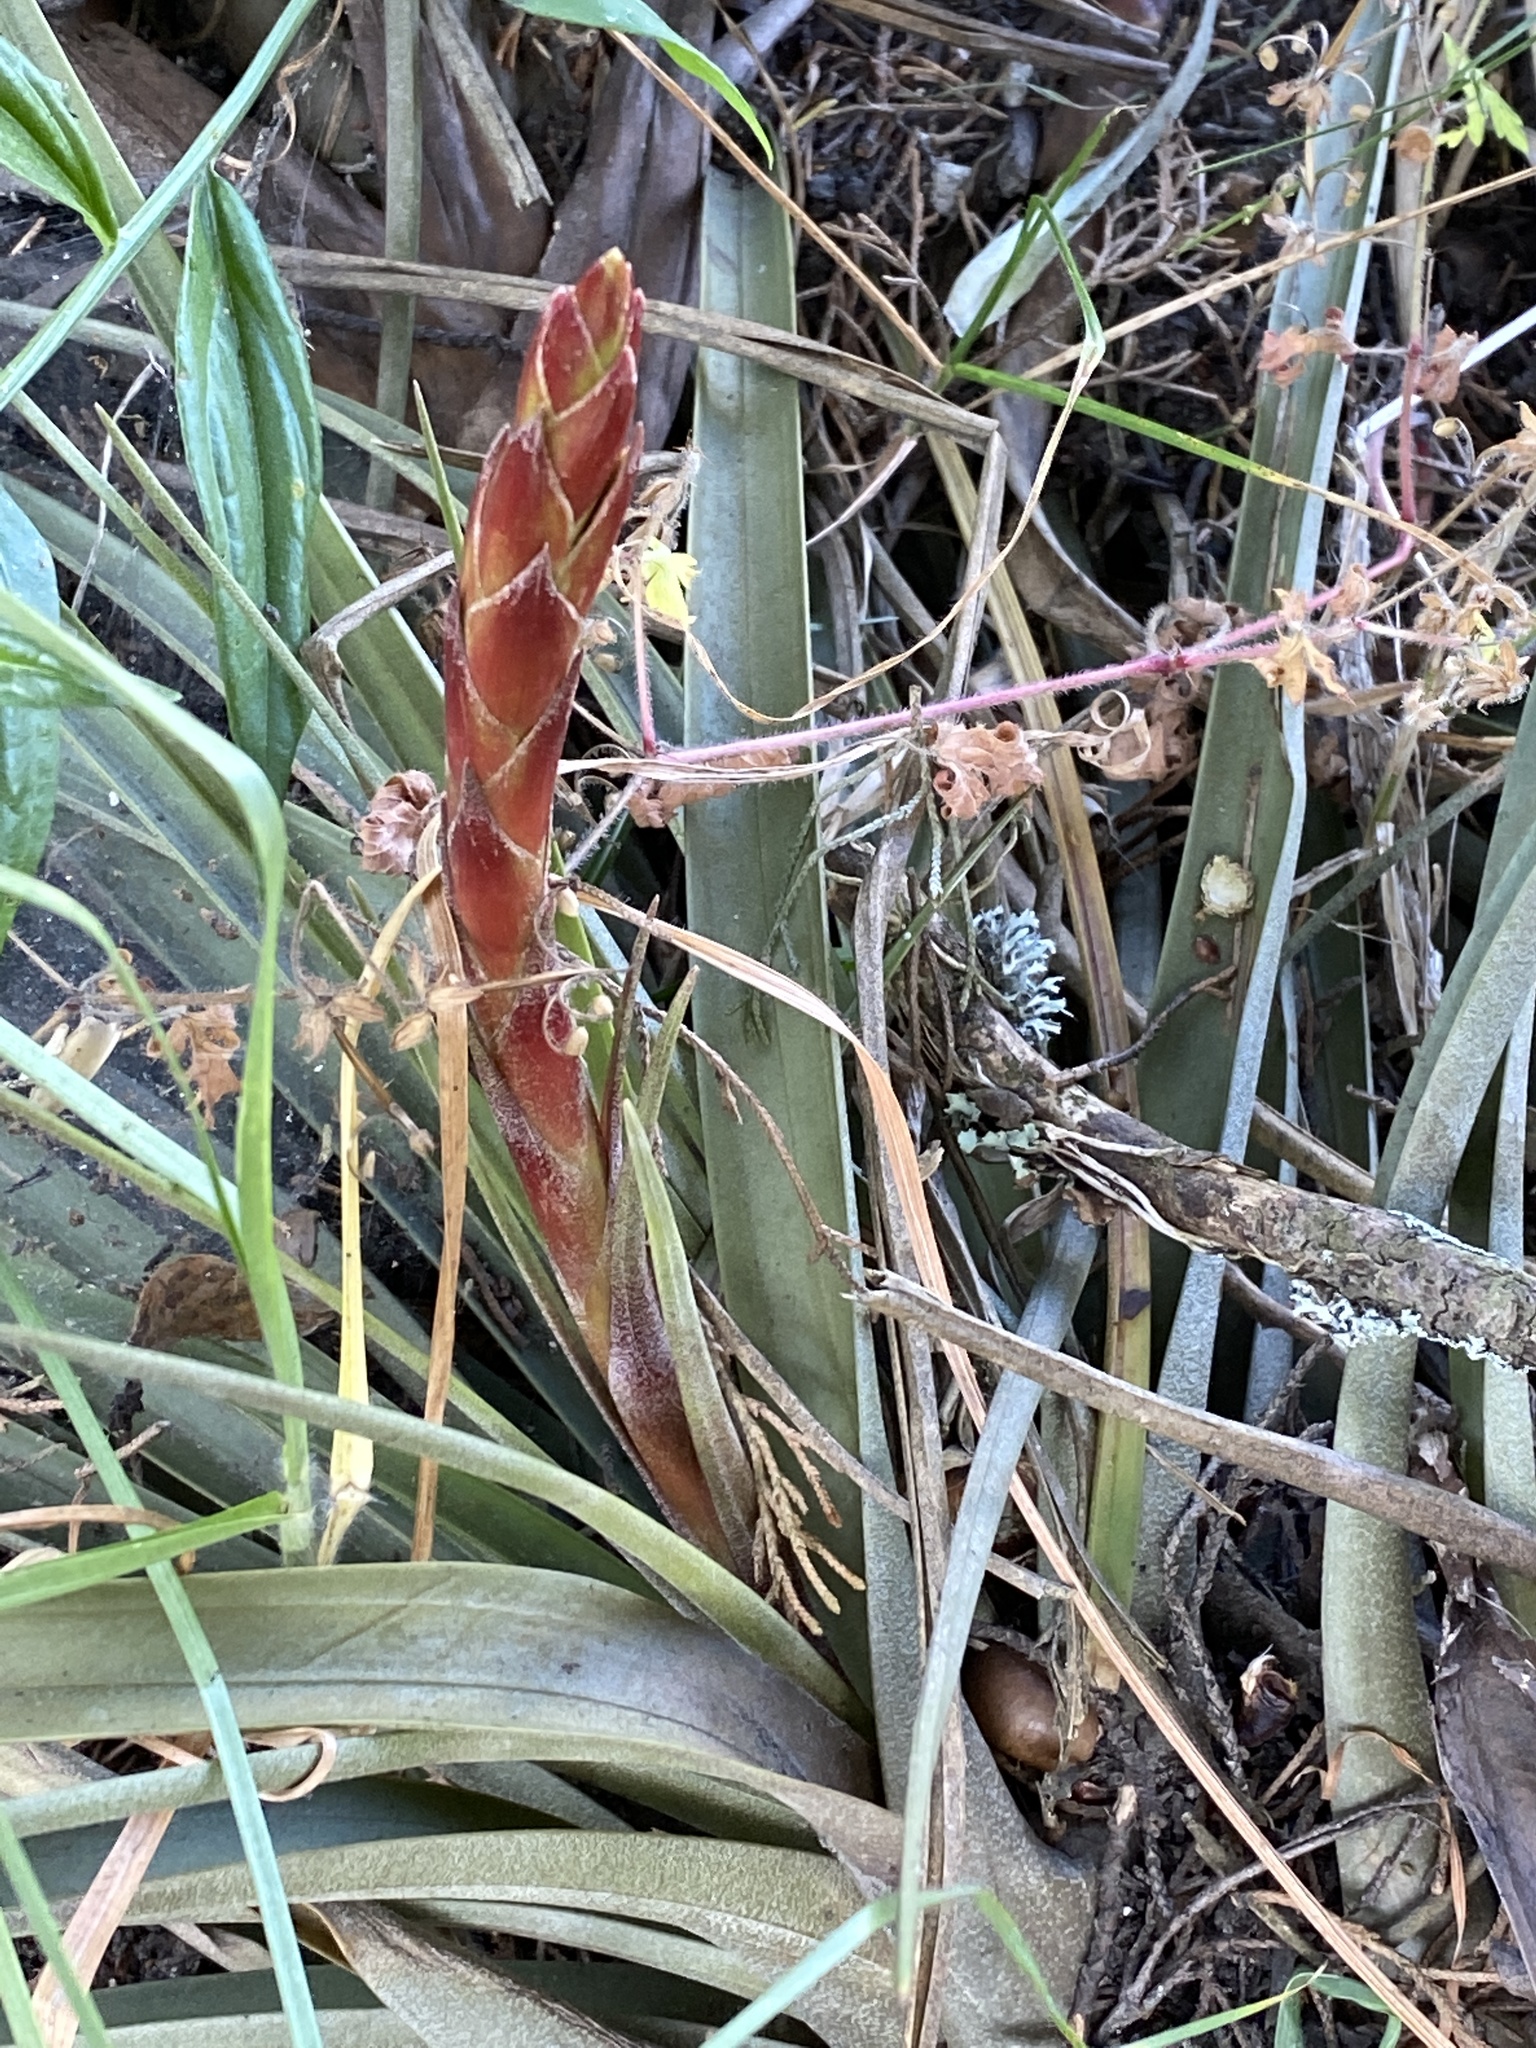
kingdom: Plantae
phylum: Tracheophyta
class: Liliopsida
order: Poales
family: Bromeliaceae
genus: Tillandsia
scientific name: Tillandsia rodrigueziana
